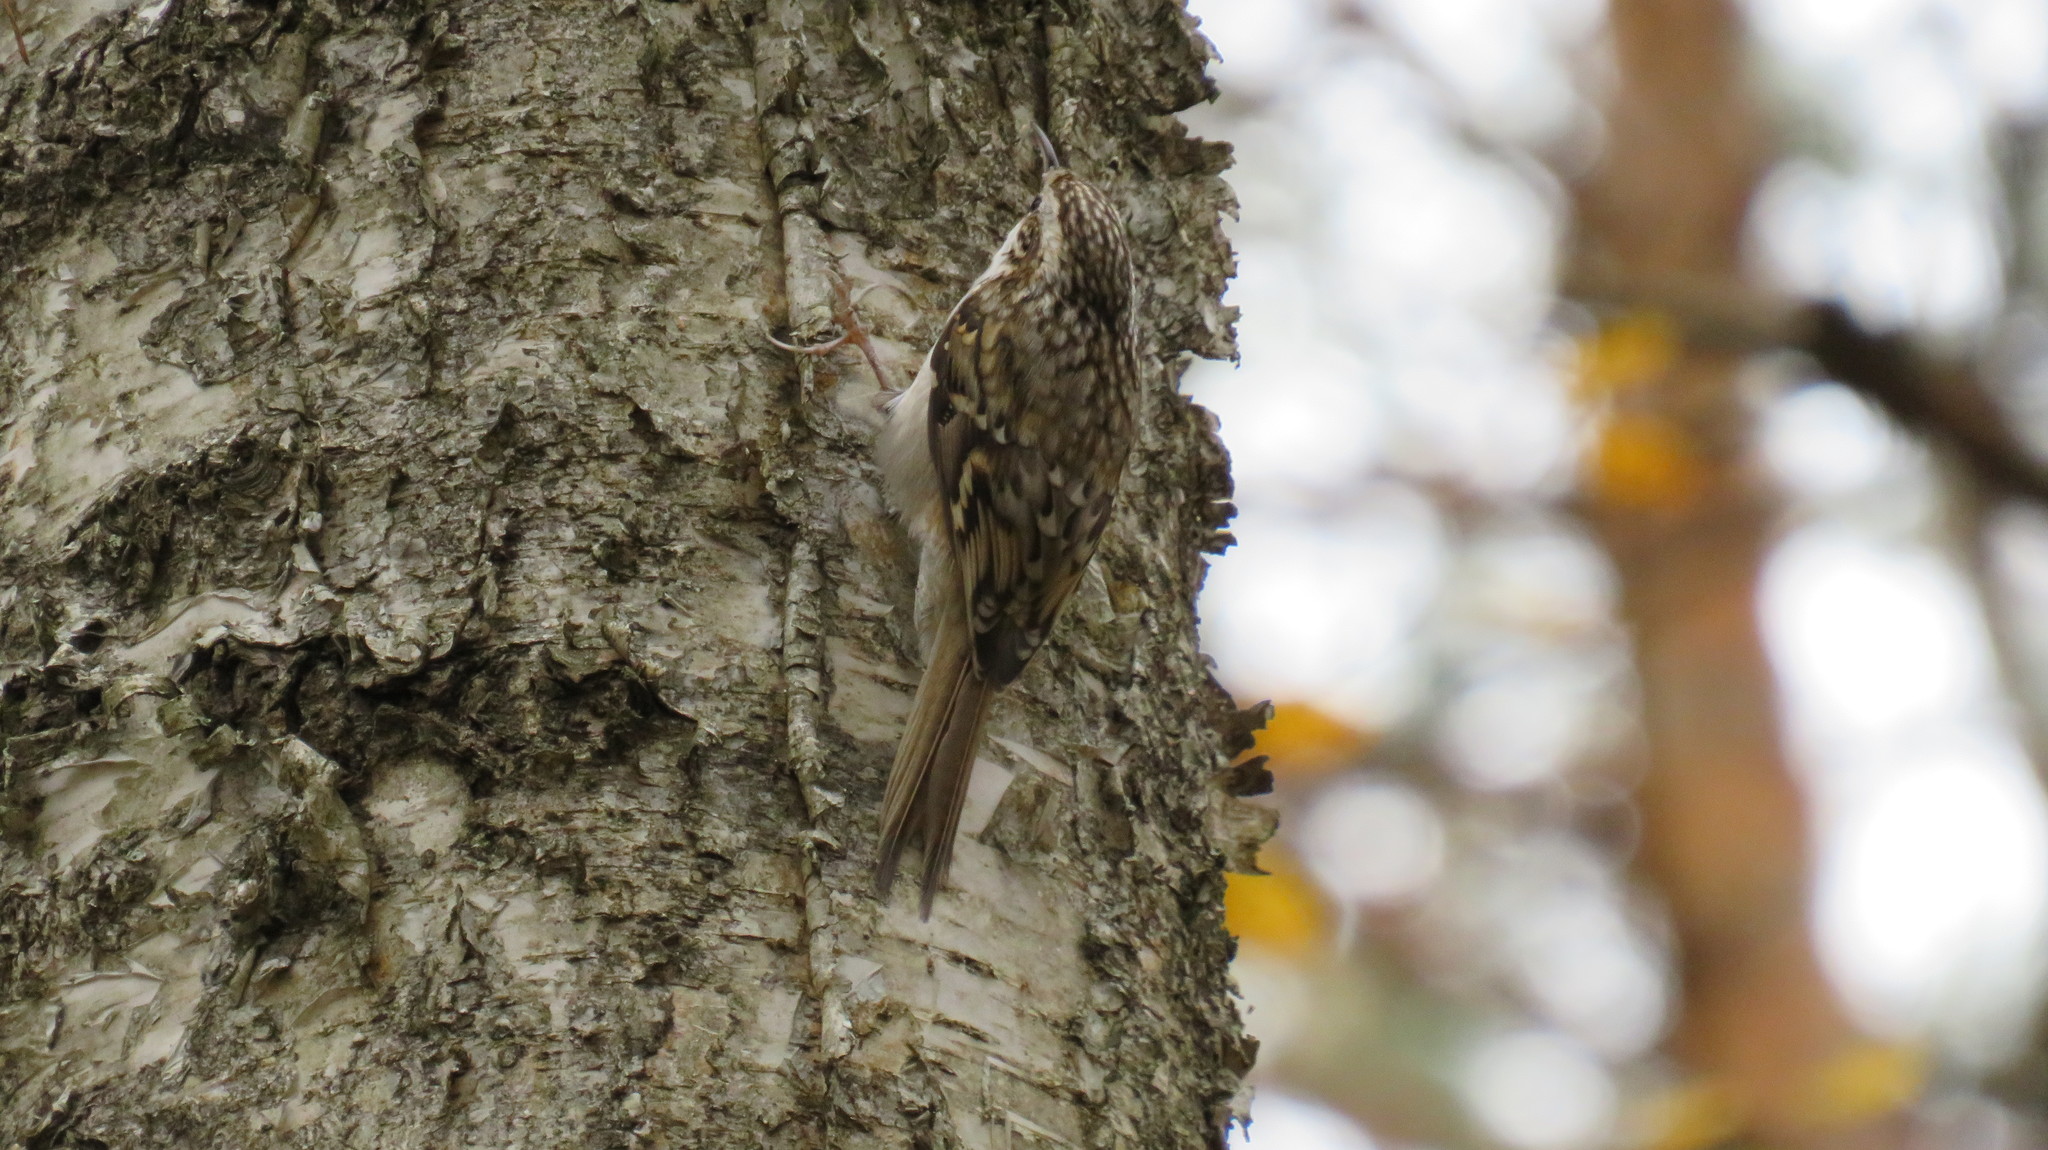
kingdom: Animalia
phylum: Chordata
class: Aves
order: Passeriformes
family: Certhiidae
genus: Certhia
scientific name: Certhia familiaris
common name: Eurasian treecreeper
